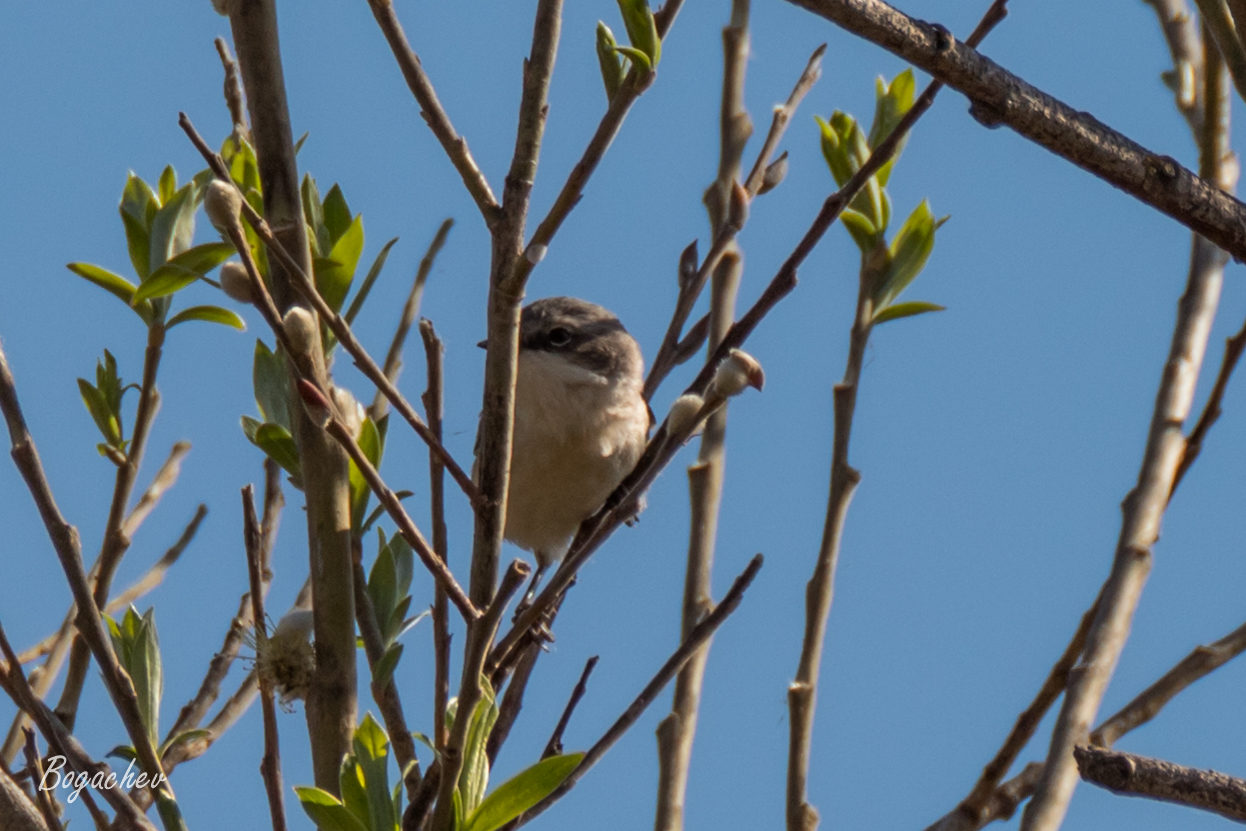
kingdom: Animalia
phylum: Chordata
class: Aves
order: Passeriformes
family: Sylviidae
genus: Sylvia
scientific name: Sylvia curruca
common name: Lesser whitethroat
